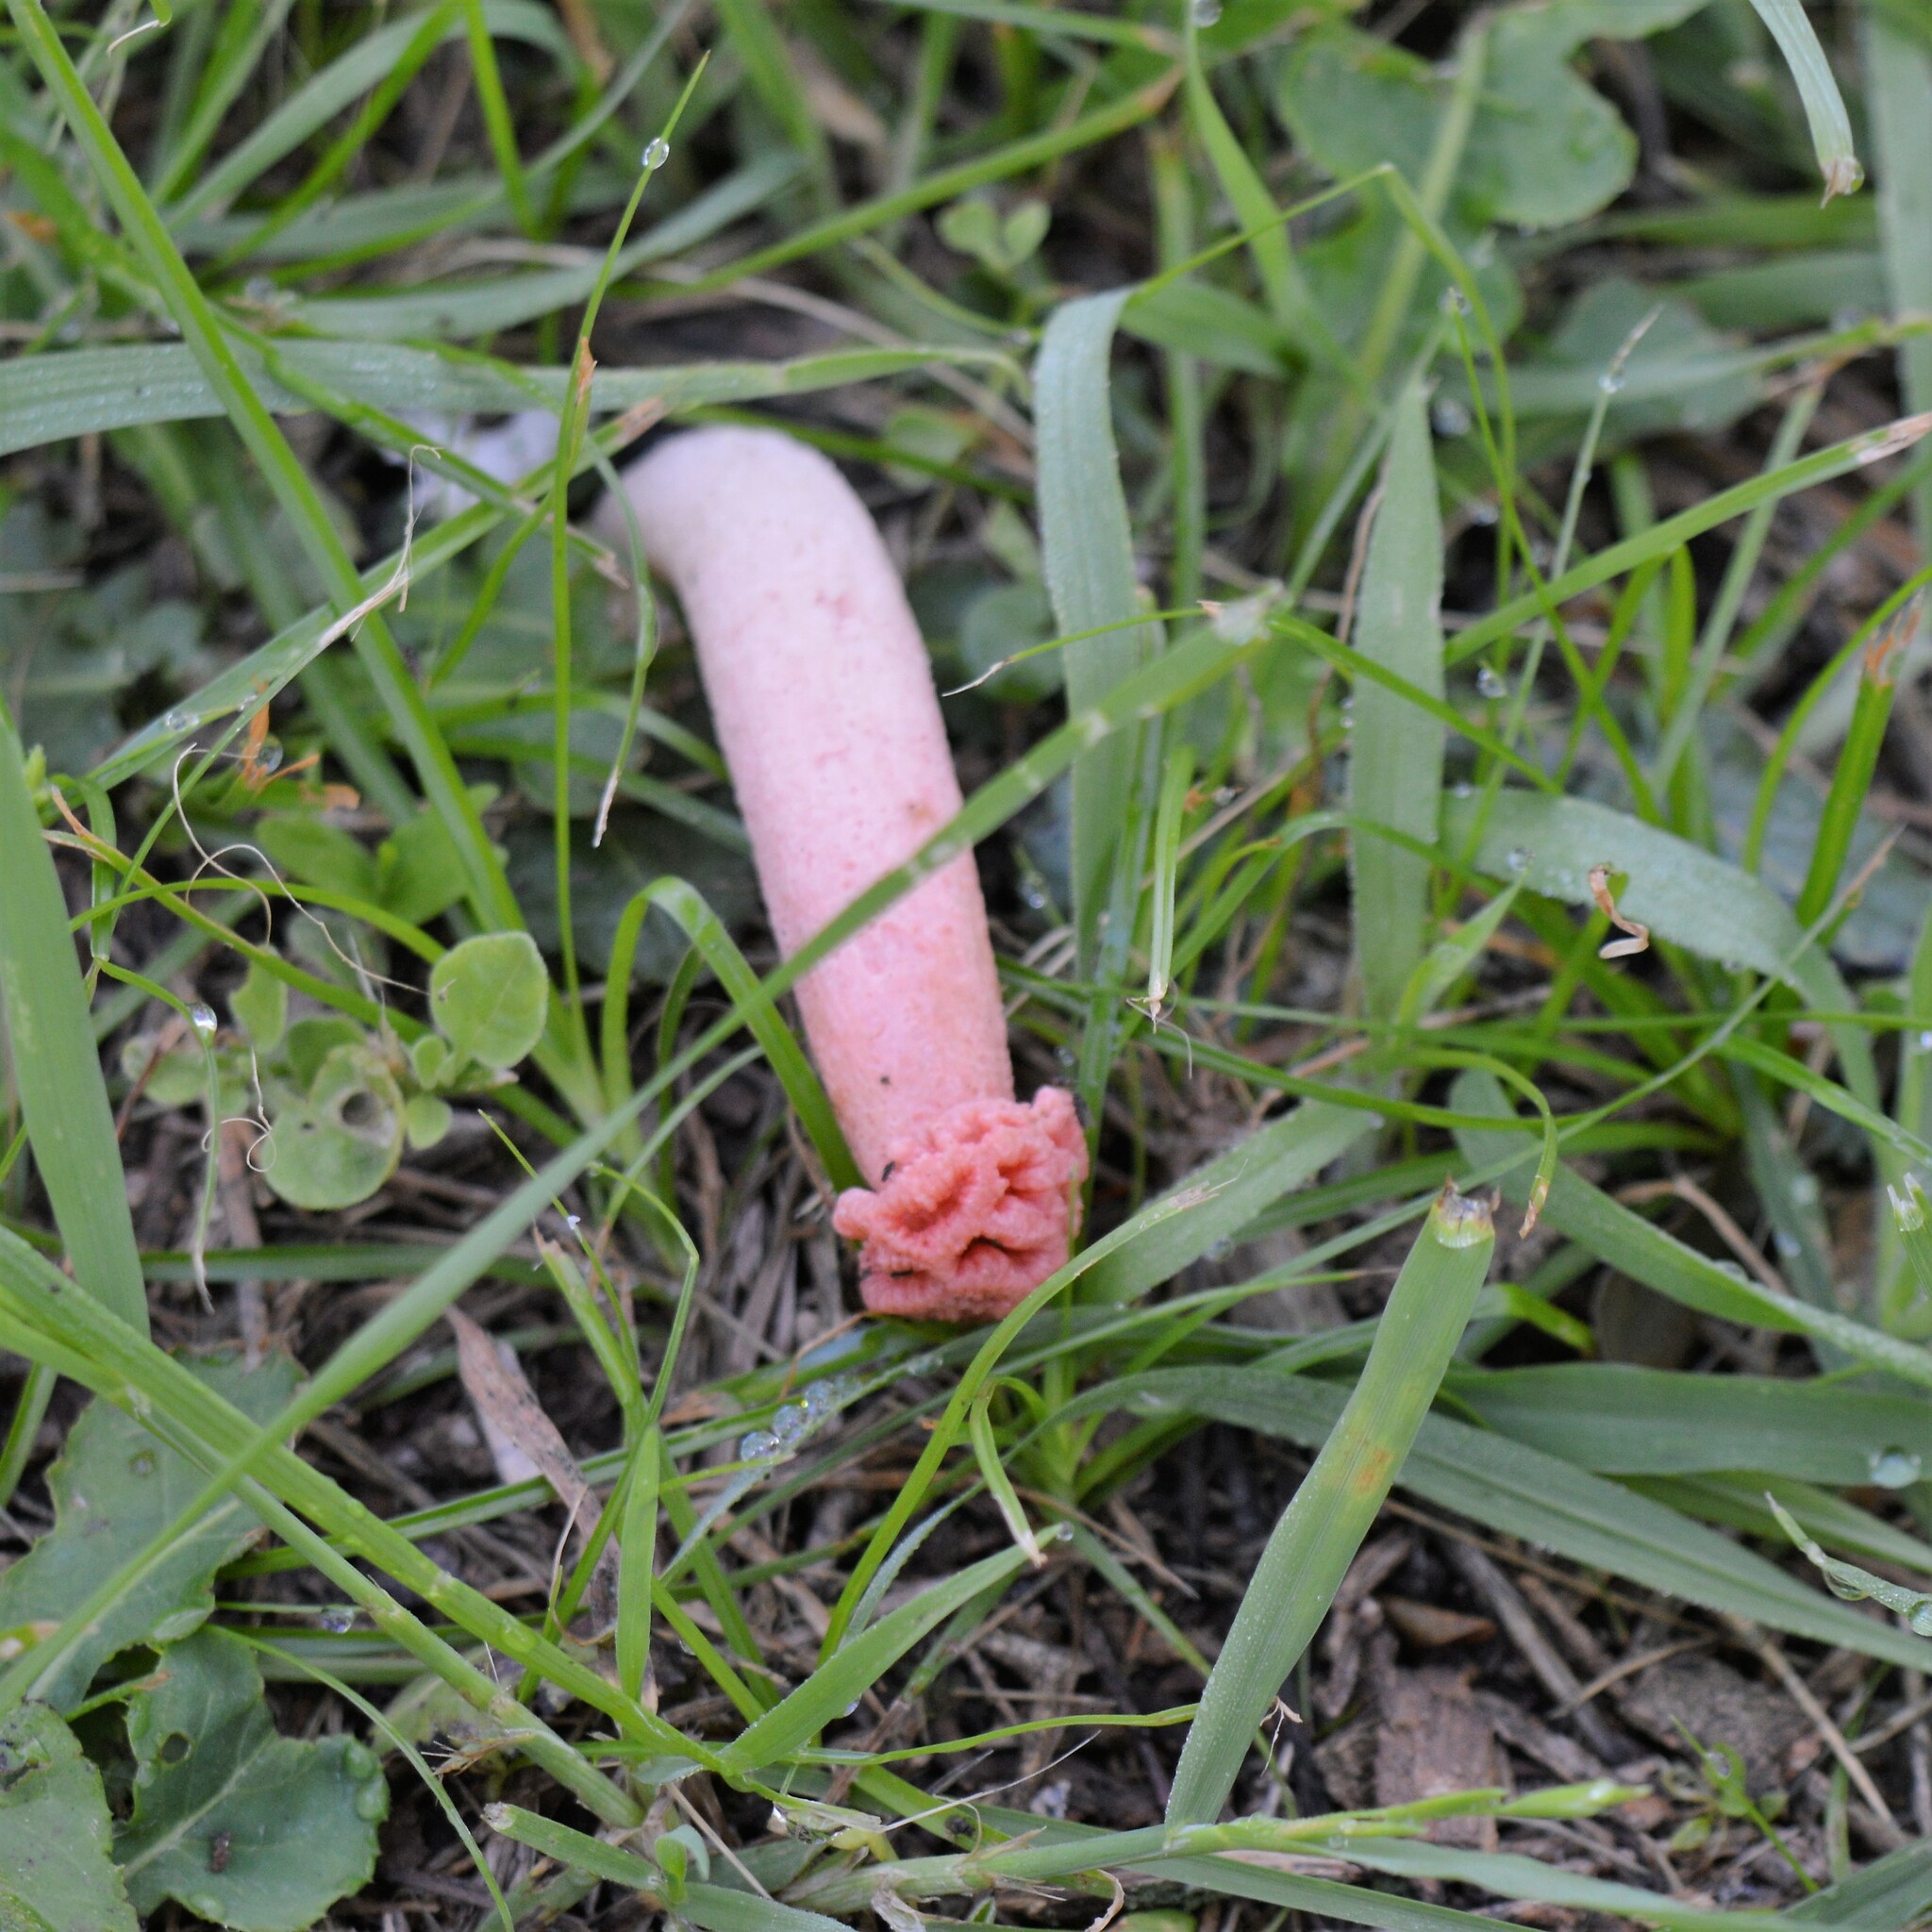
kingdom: Fungi
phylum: Basidiomycota
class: Agaricomycetes
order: Phallales
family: Phallaceae
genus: Lysurus
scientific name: Lysurus periphragmoides
